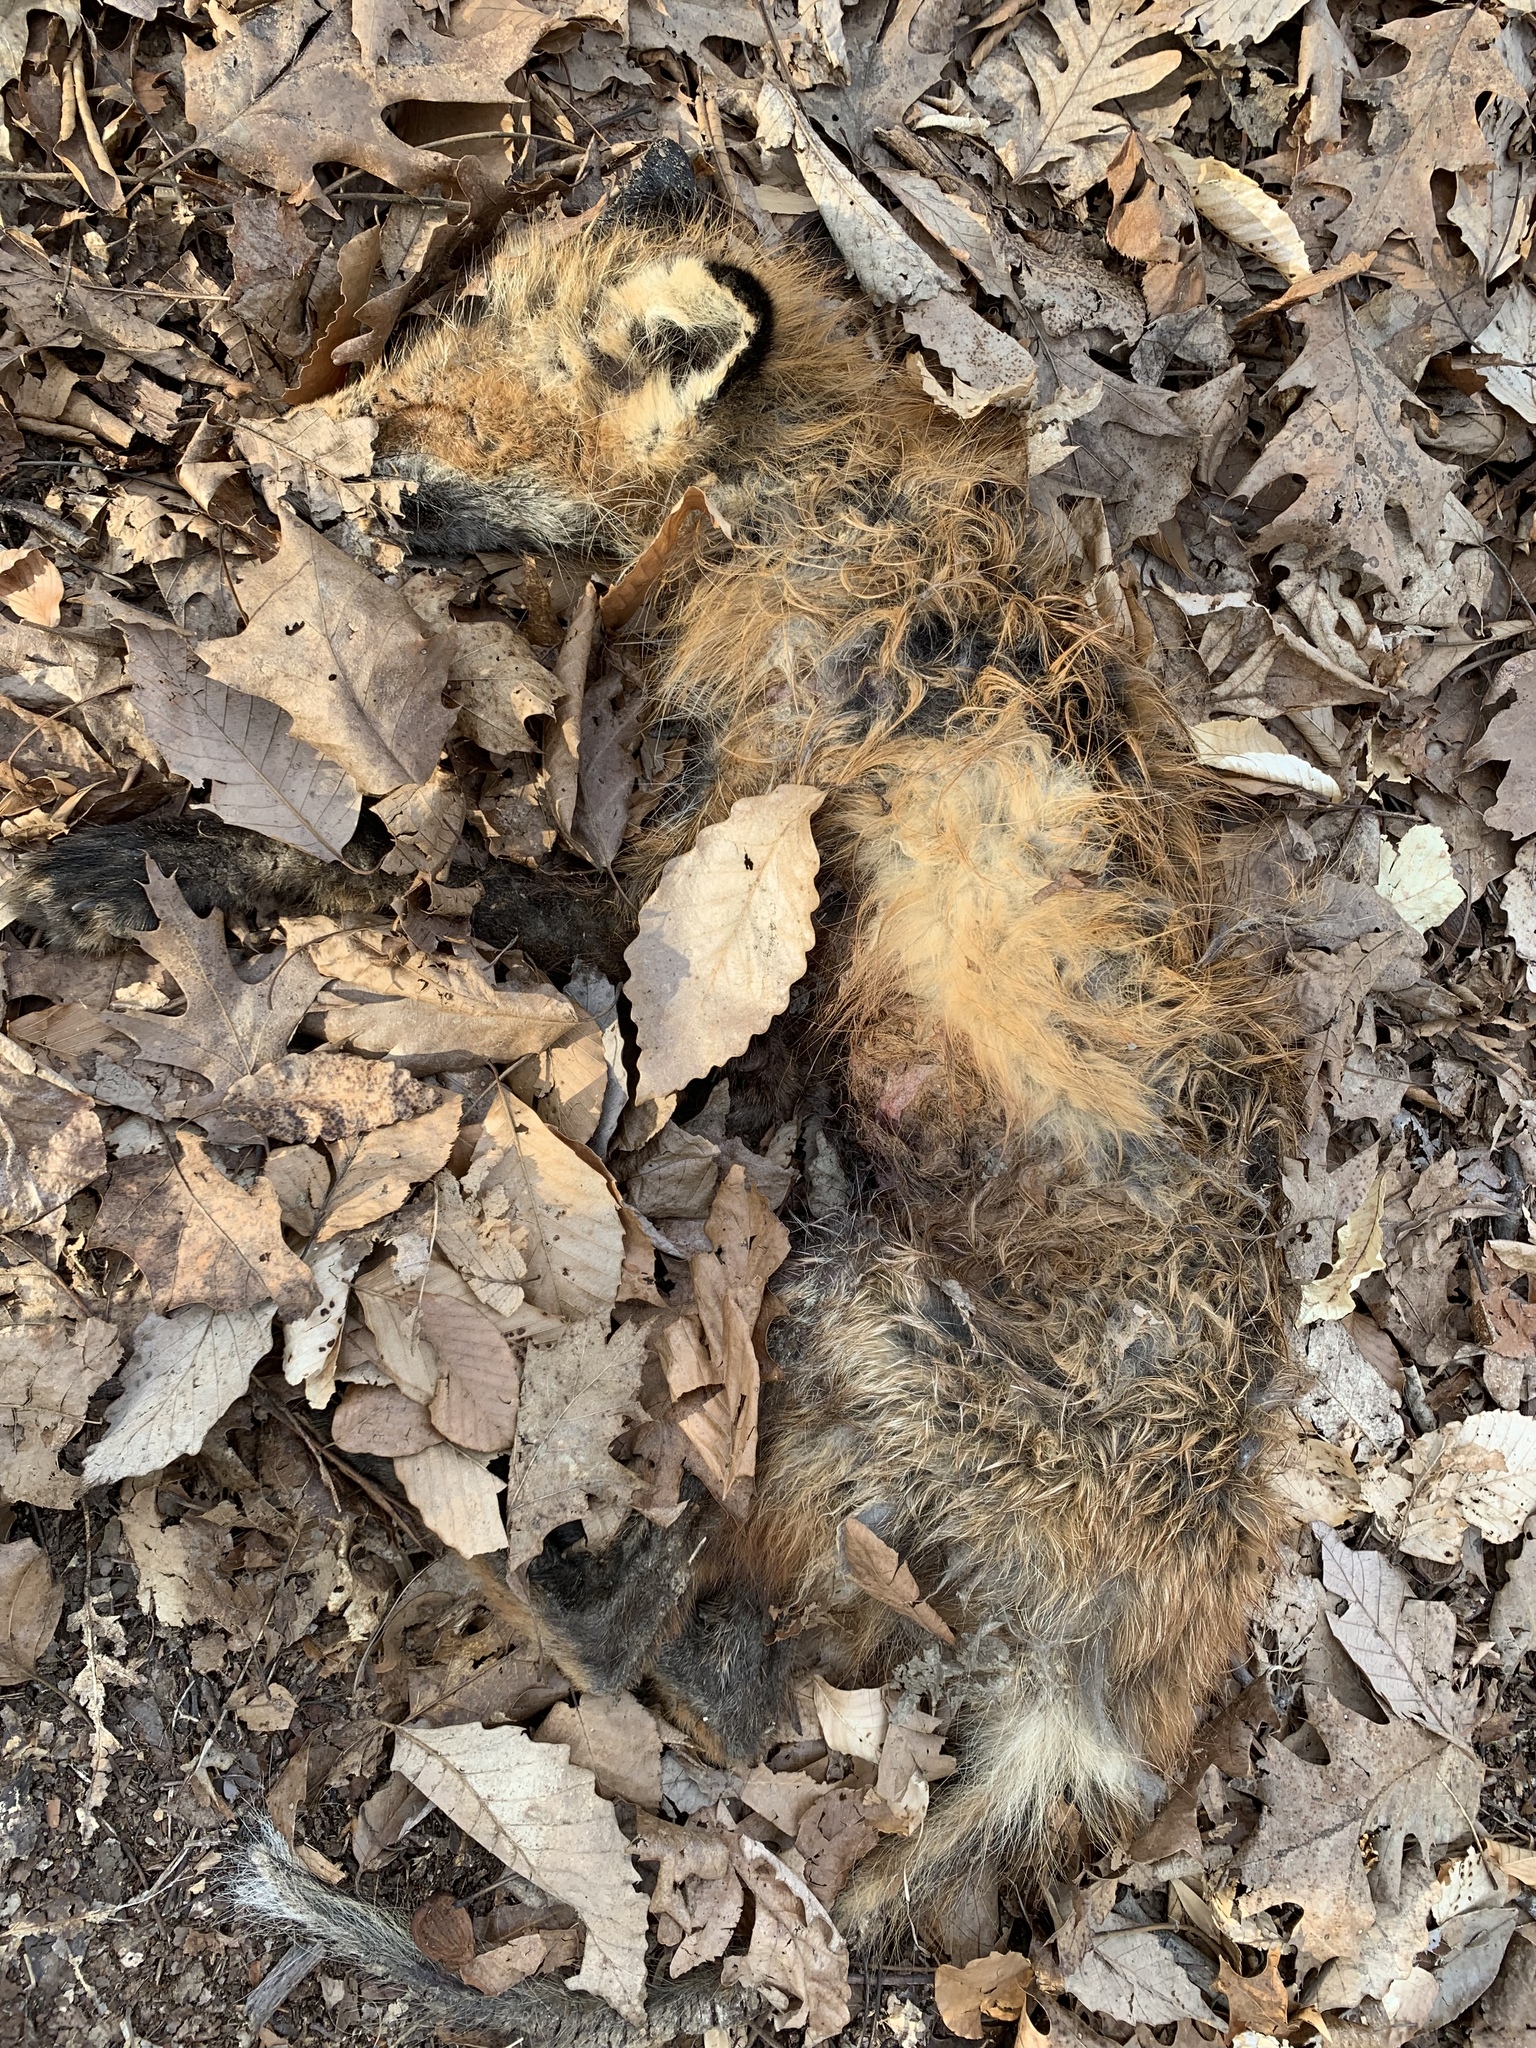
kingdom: Animalia
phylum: Chordata
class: Mammalia
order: Carnivora
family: Canidae
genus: Vulpes
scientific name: Vulpes vulpes
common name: Red fox
